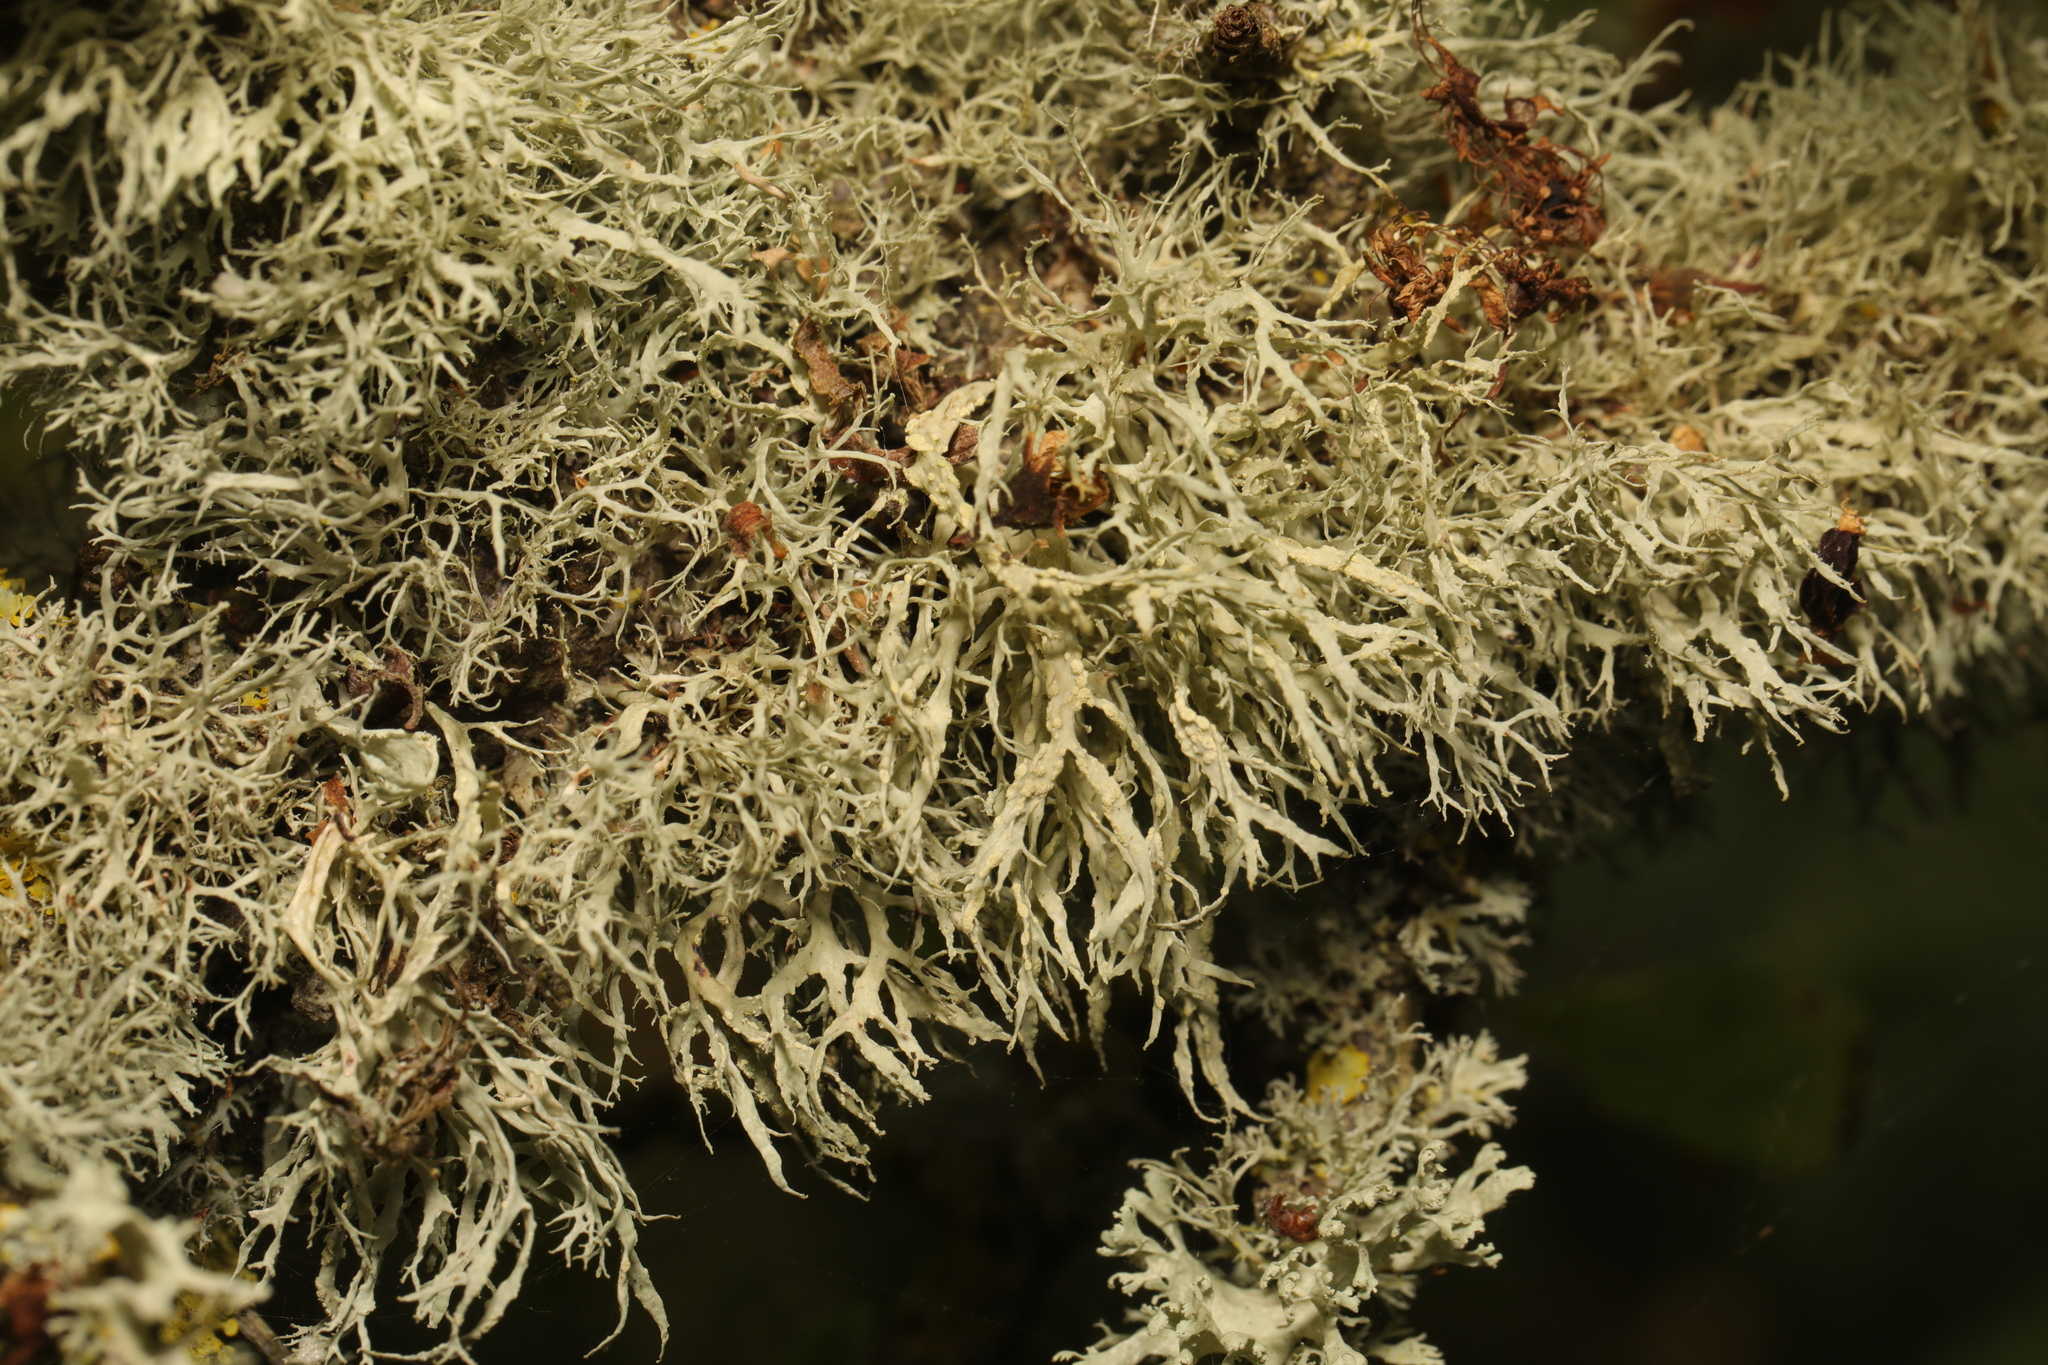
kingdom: Fungi
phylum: Ascomycota
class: Lecanoromycetes
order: Lecanorales
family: Ramalinaceae
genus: Ramalina
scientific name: Ramalina farinacea
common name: Farinose cartilage lichen
